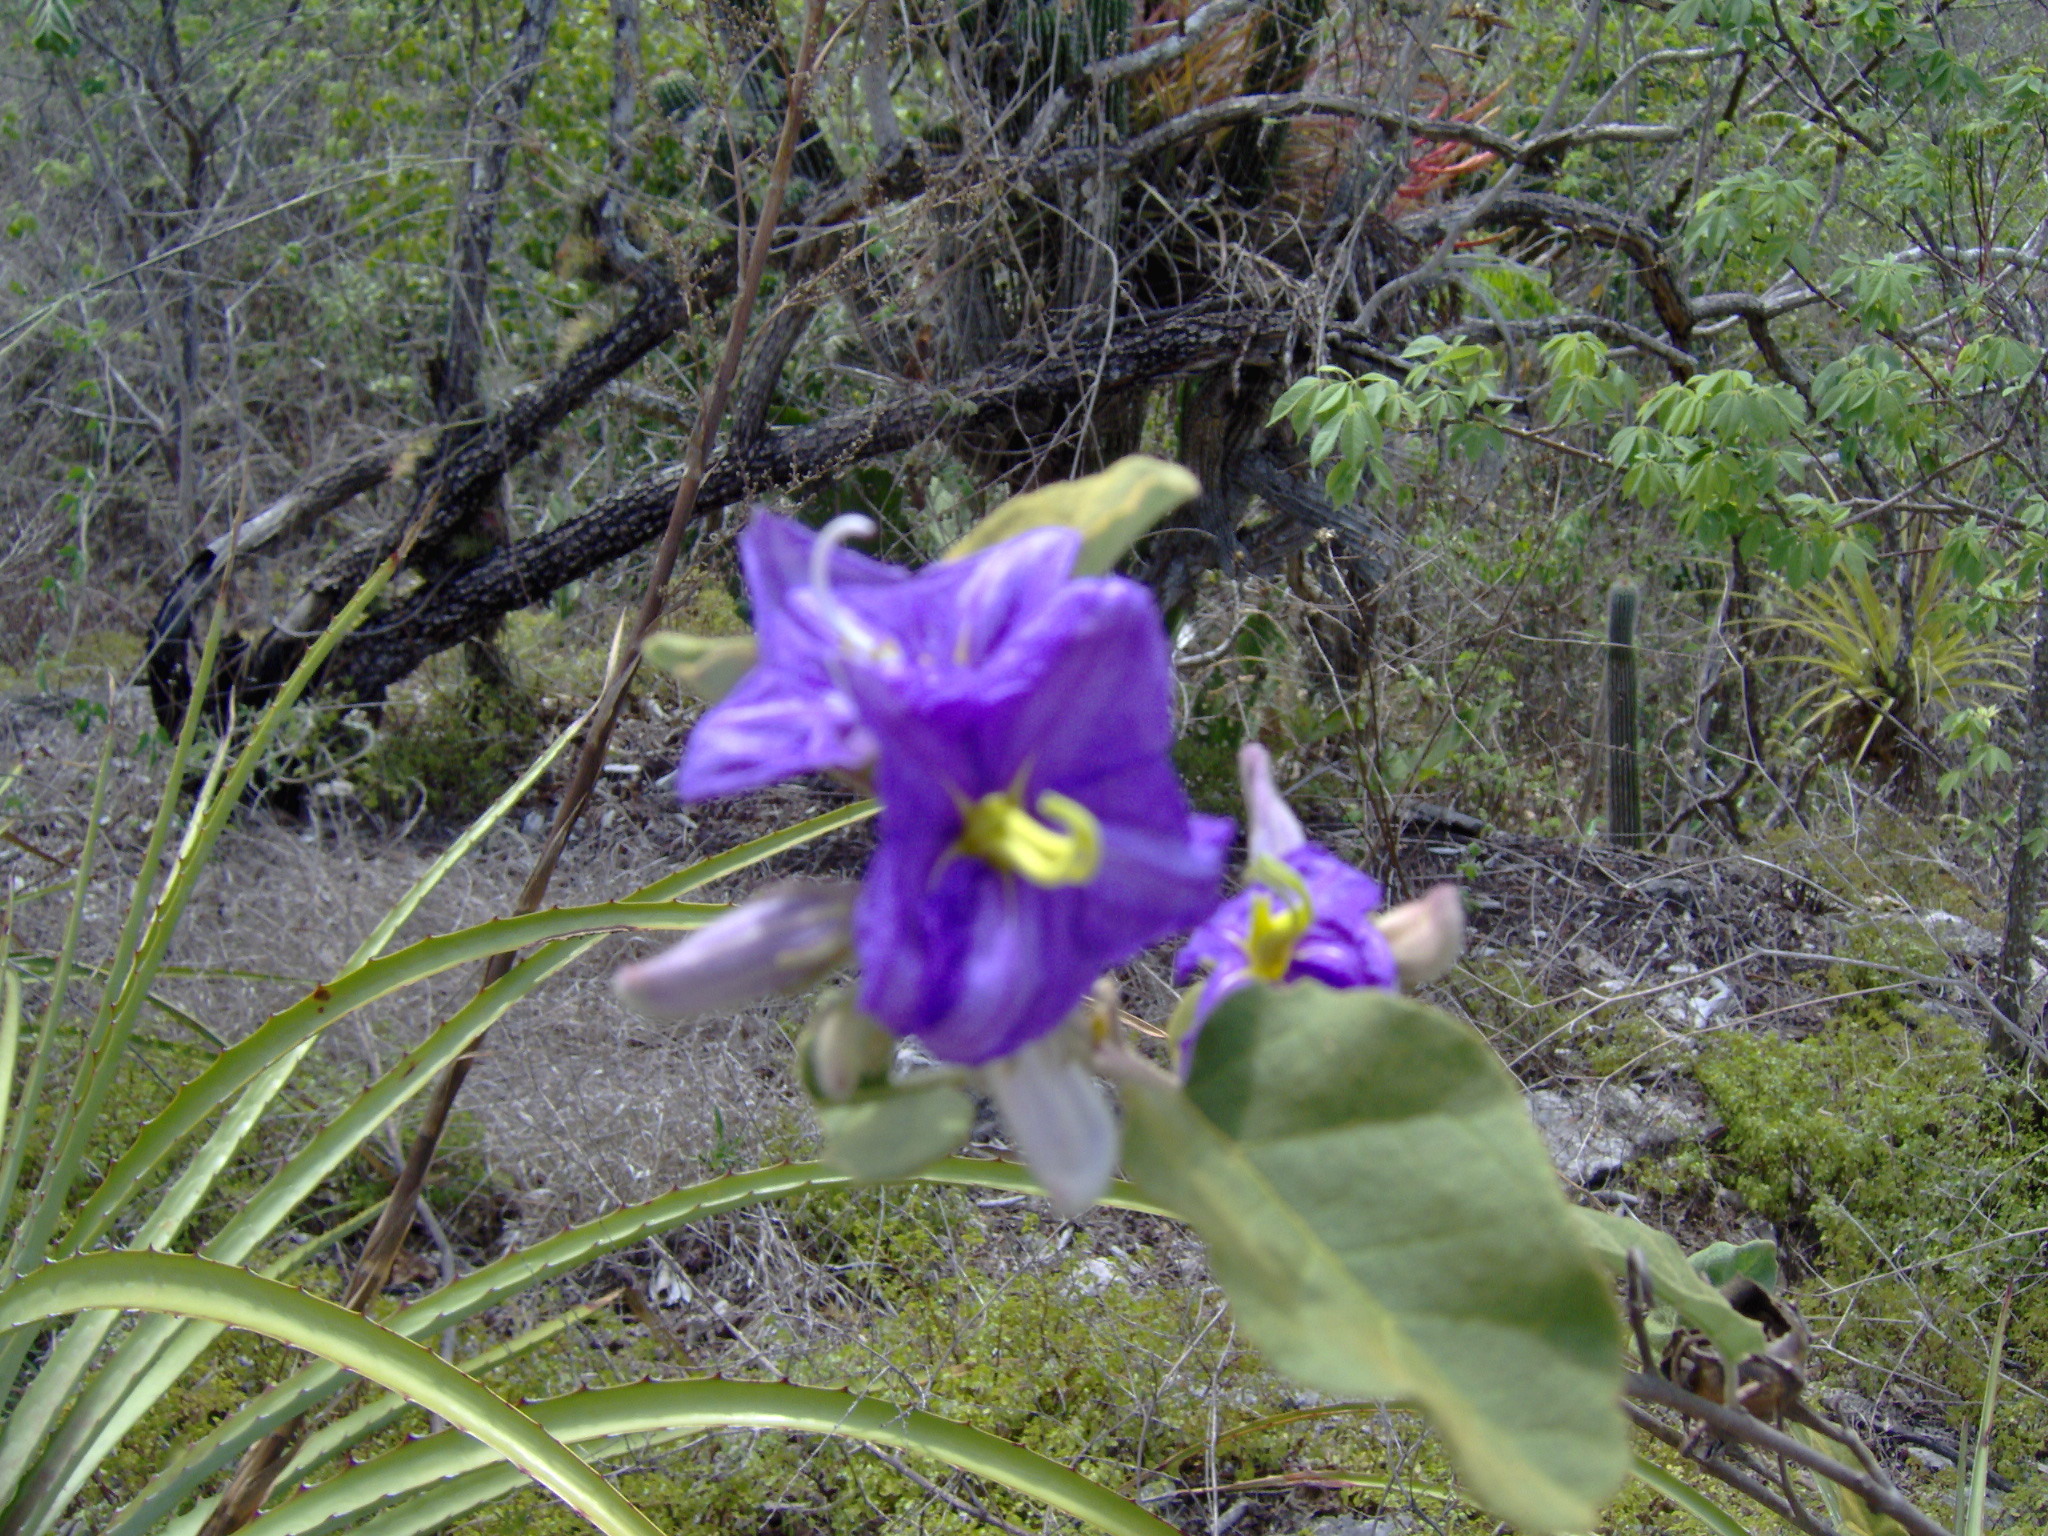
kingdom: Plantae
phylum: Tracheophyta
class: Magnoliopsida
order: Solanales
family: Solanaceae
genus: Solanum
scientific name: Solanum houstonii
